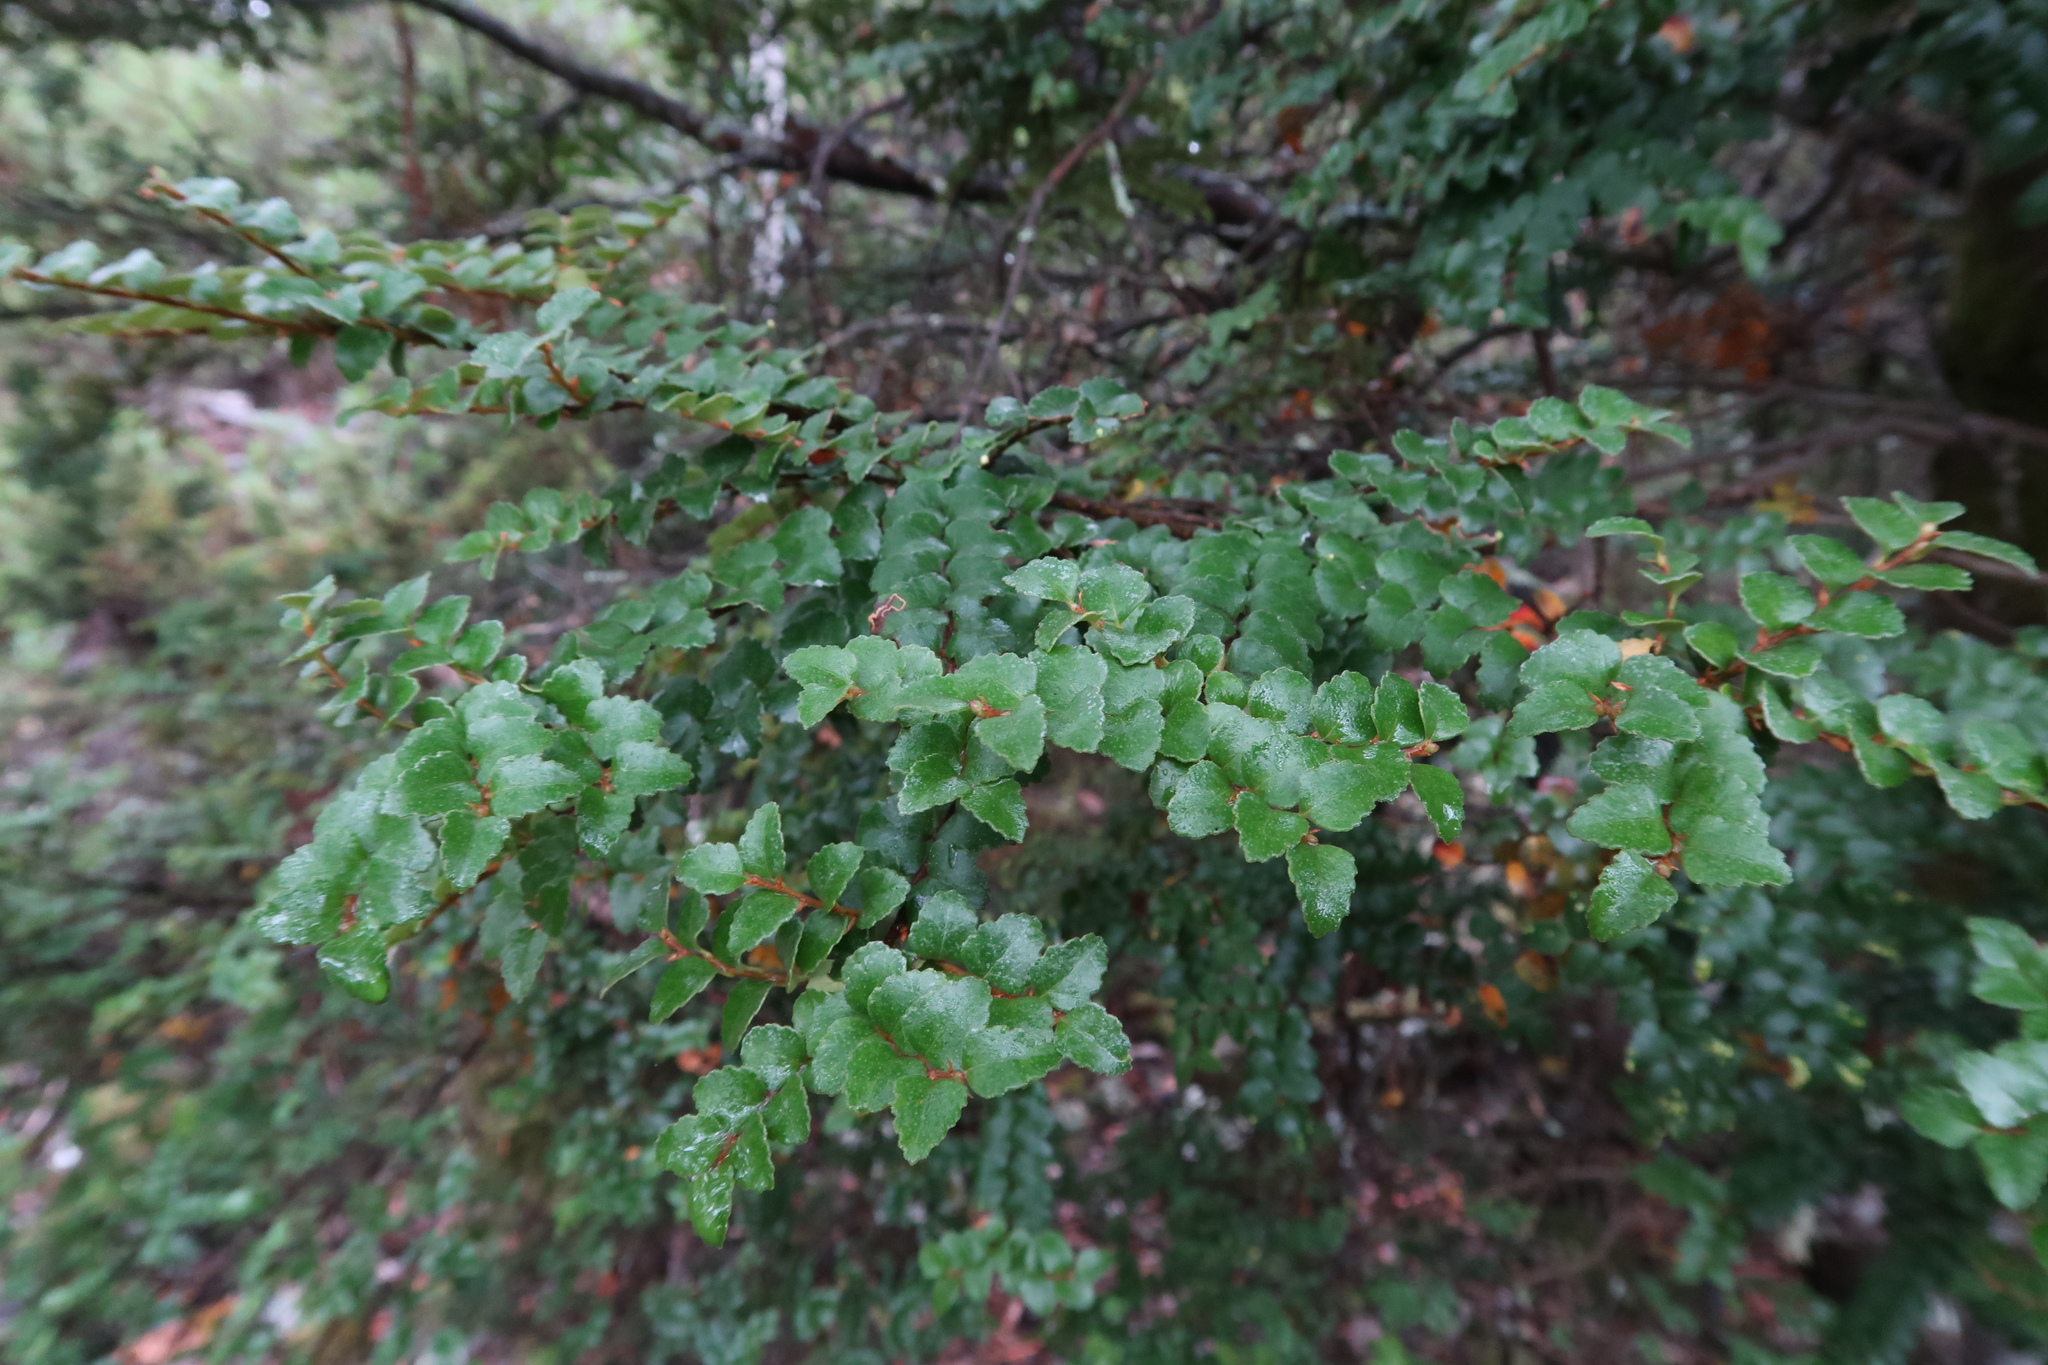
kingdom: Plantae
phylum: Tracheophyta
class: Magnoliopsida
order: Fagales
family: Nothofagaceae
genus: Nothofagus
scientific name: Nothofagus cunninghamii
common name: Myrtle beech
